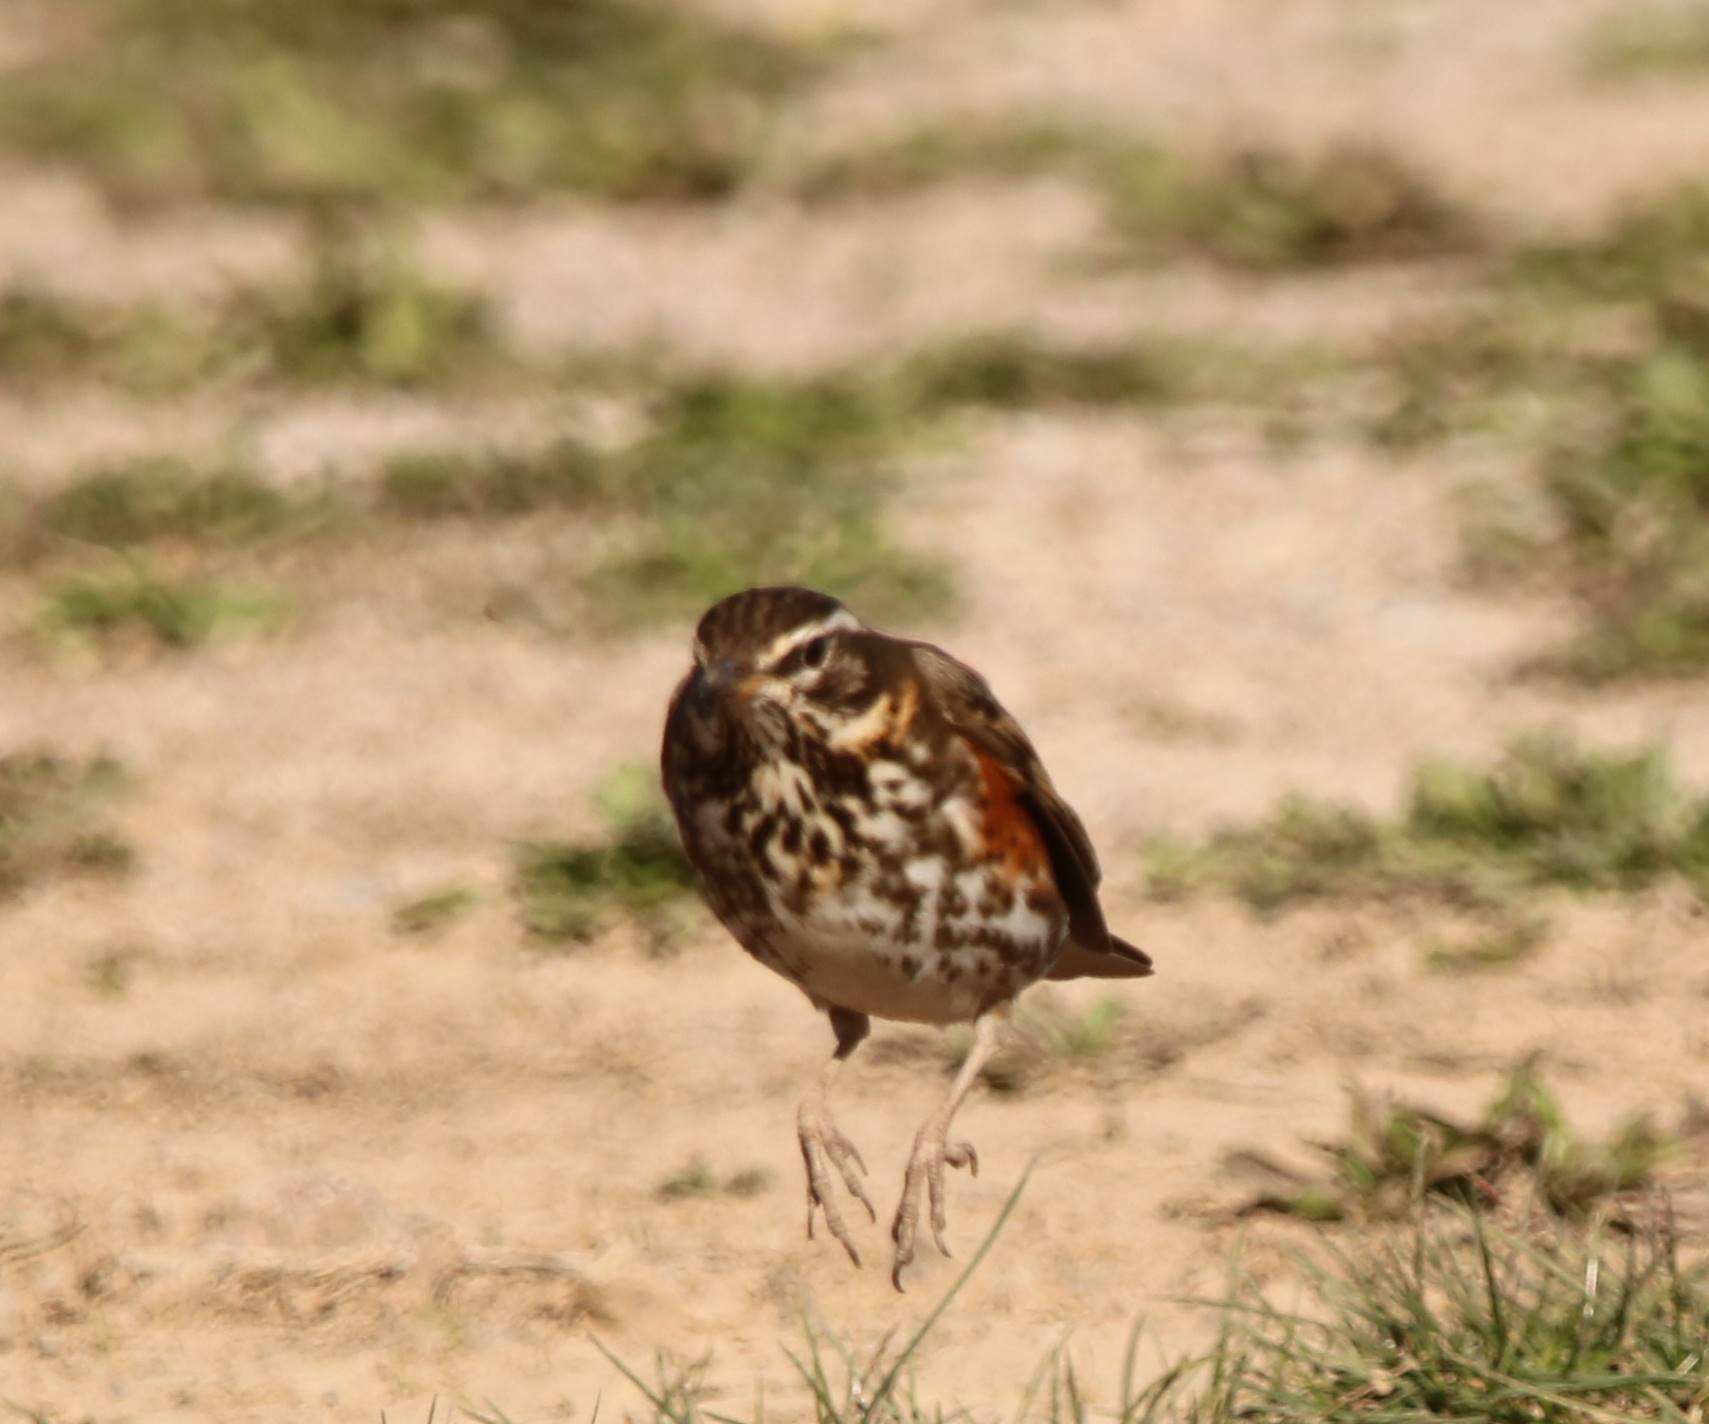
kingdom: Animalia
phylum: Chordata
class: Aves
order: Passeriformes
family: Turdidae
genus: Turdus
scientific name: Turdus iliacus
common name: Redwing
